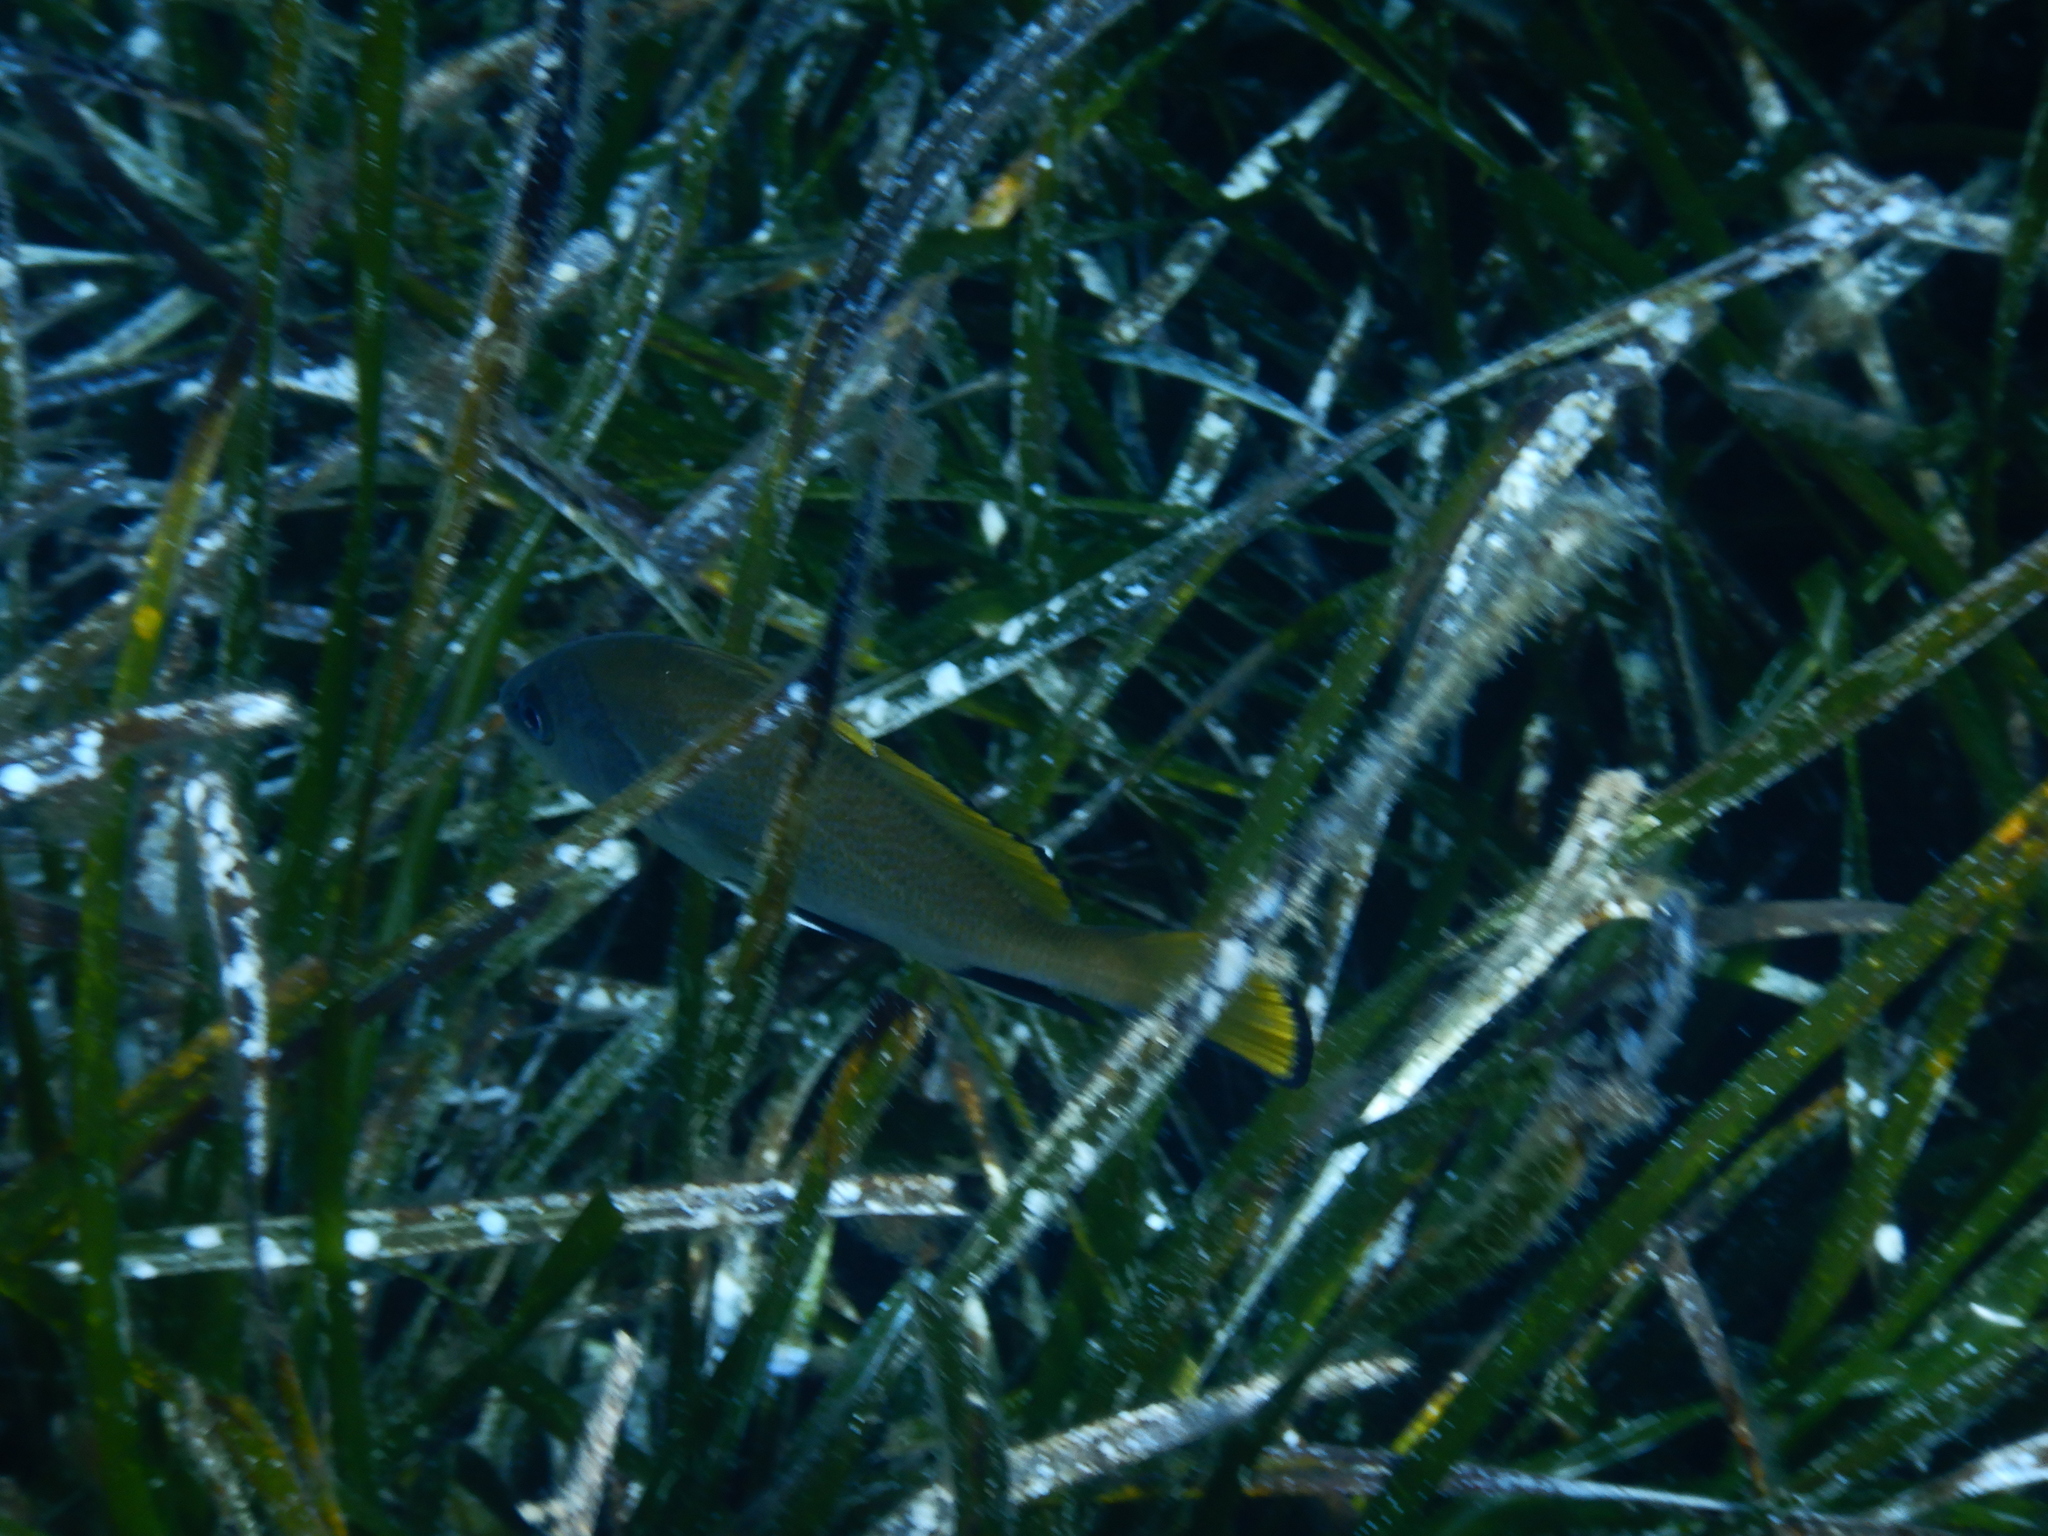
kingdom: Animalia
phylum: Chordata
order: Perciformes
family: Sciaenidae
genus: Sciaena
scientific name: Sciaena umbra
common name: Brown meagre
